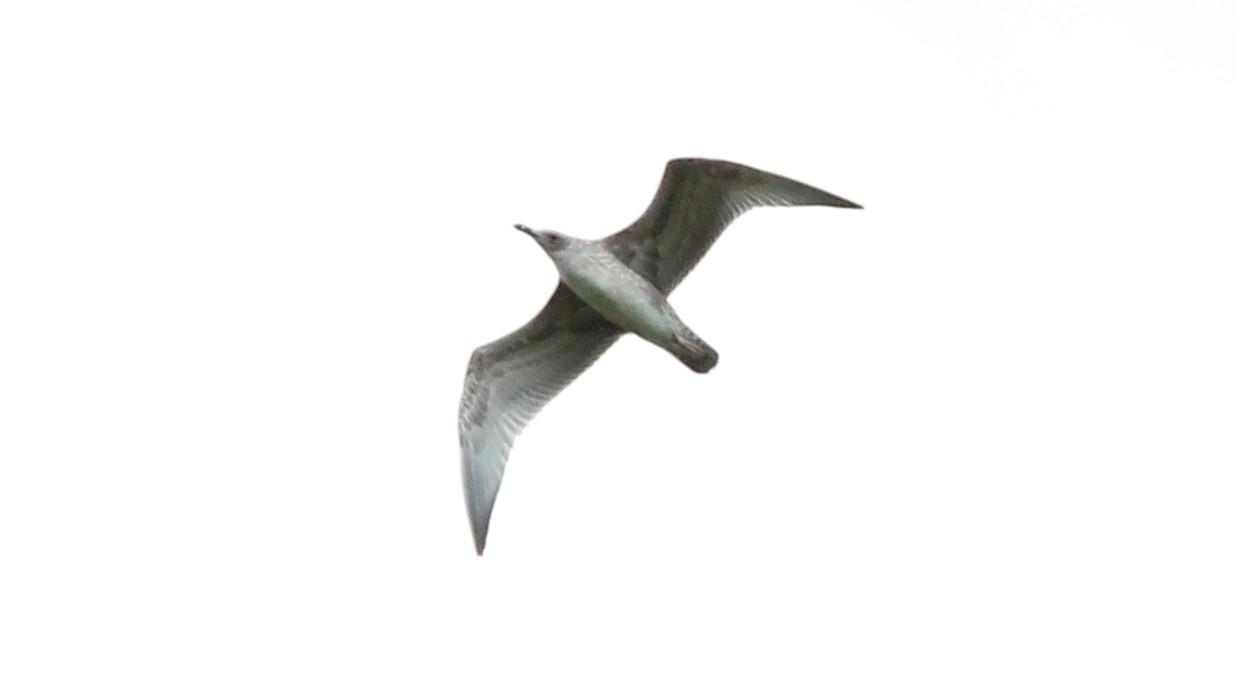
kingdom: Animalia
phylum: Chordata
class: Aves
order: Charadriiformes
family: Laridae
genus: Larus
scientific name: Larus cachinnans
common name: Caspian gull
